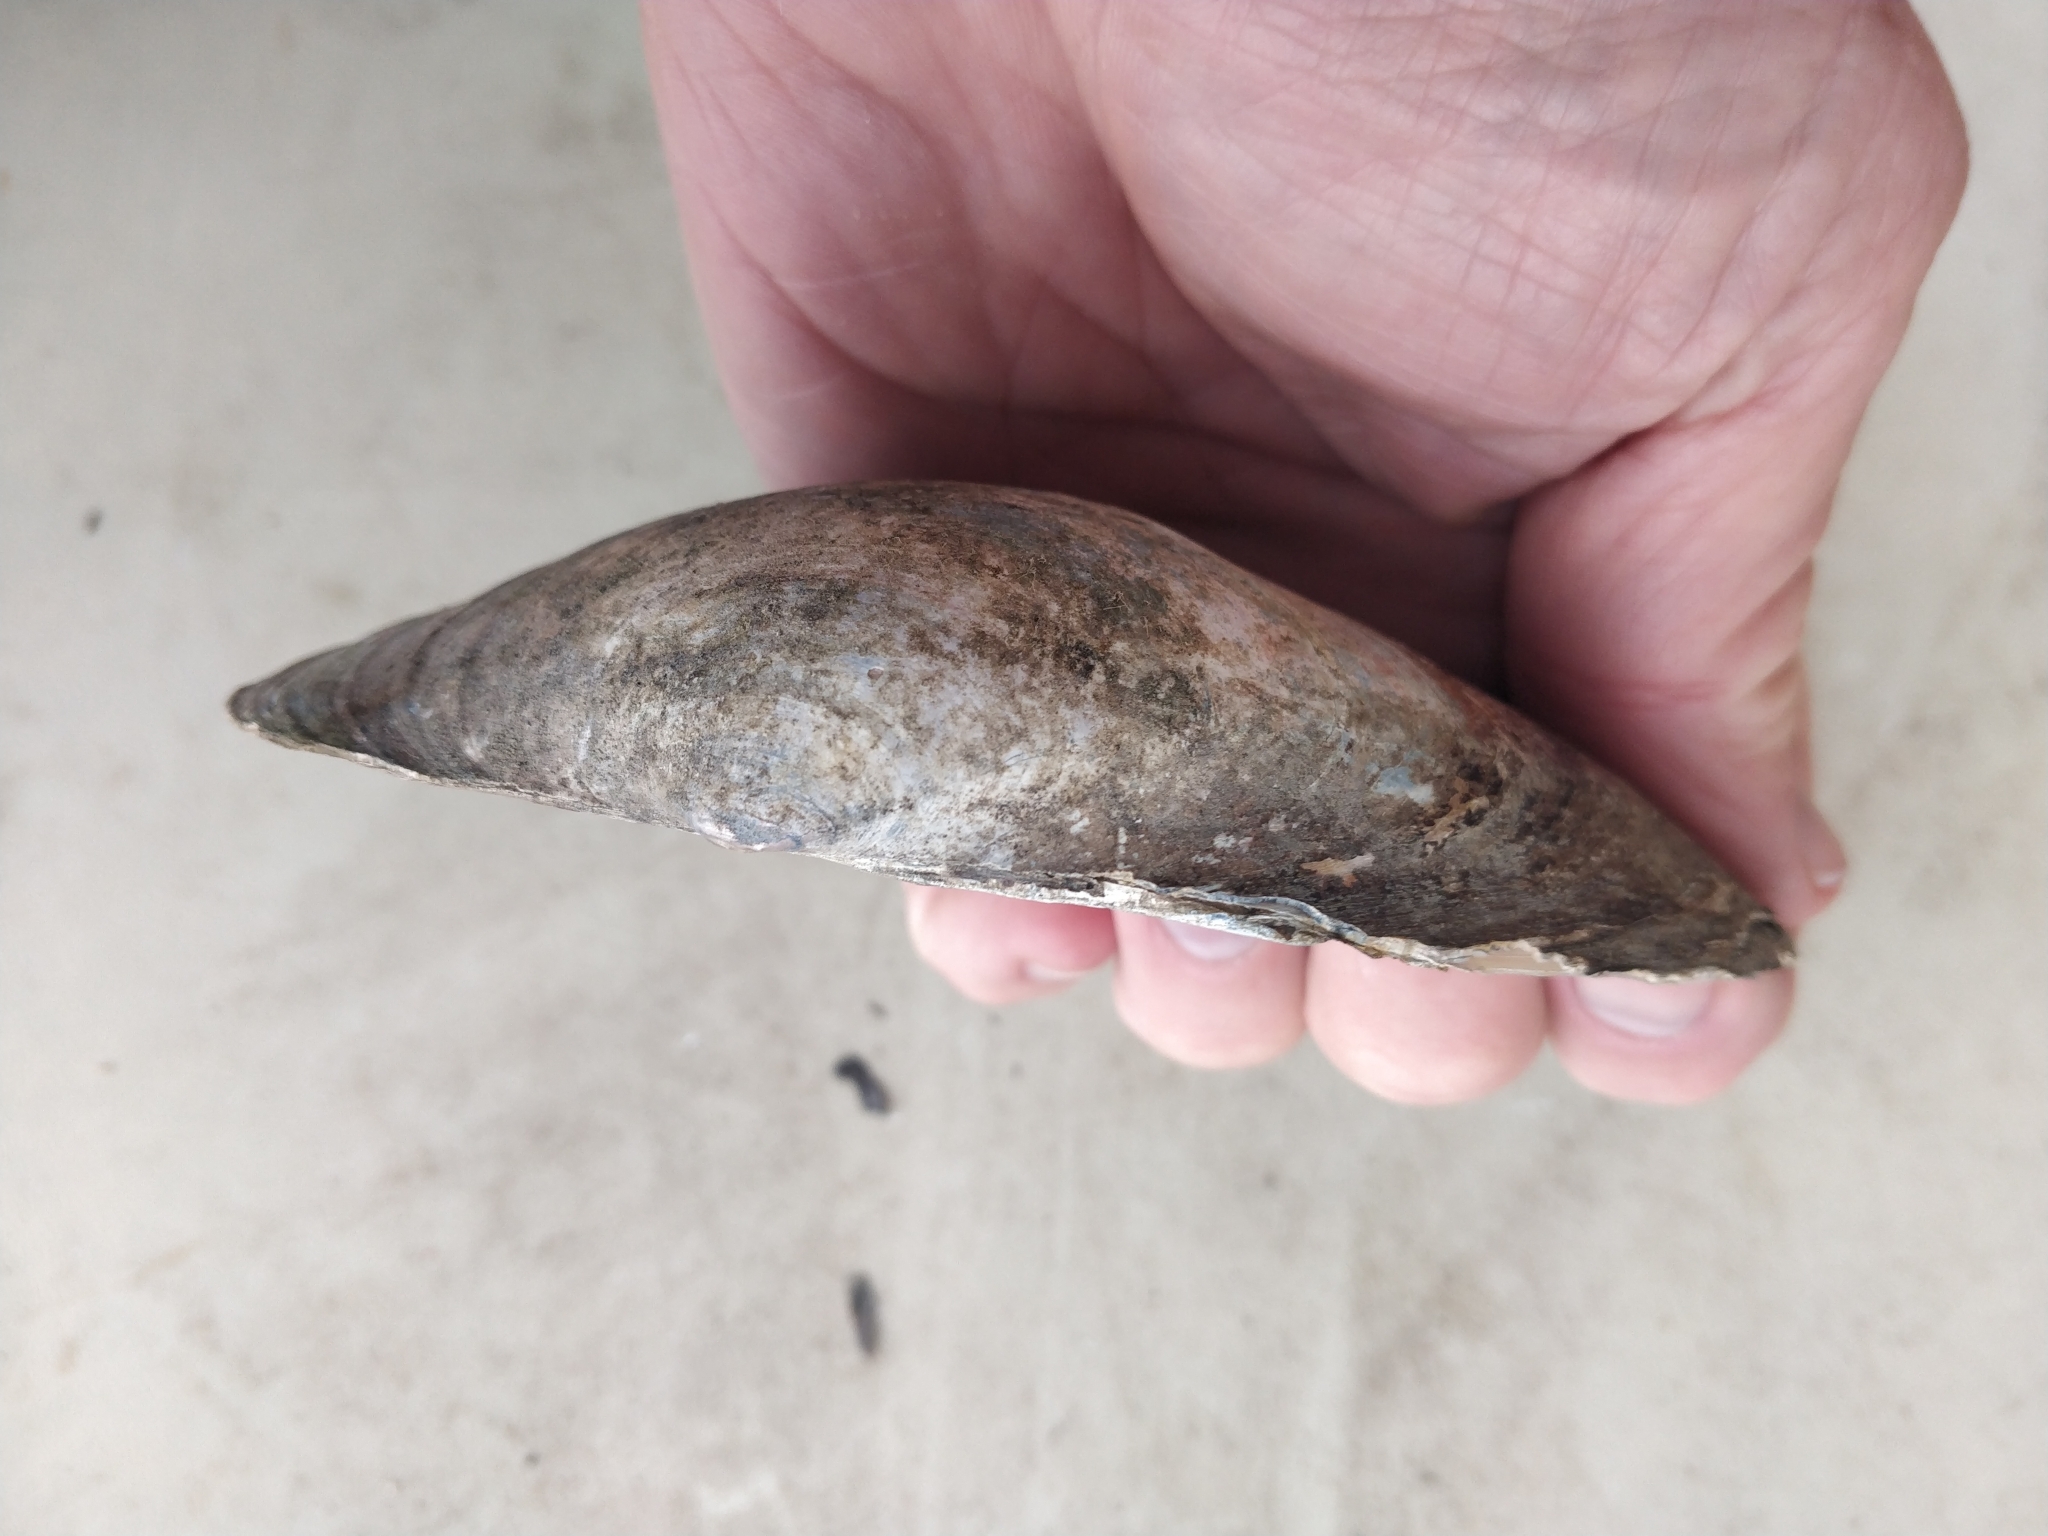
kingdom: Animalia
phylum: Mollusca
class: Bivalvia
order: Unionida
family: Unionidae
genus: Pyganodon
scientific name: Pyganodon grandis
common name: Giant floater
